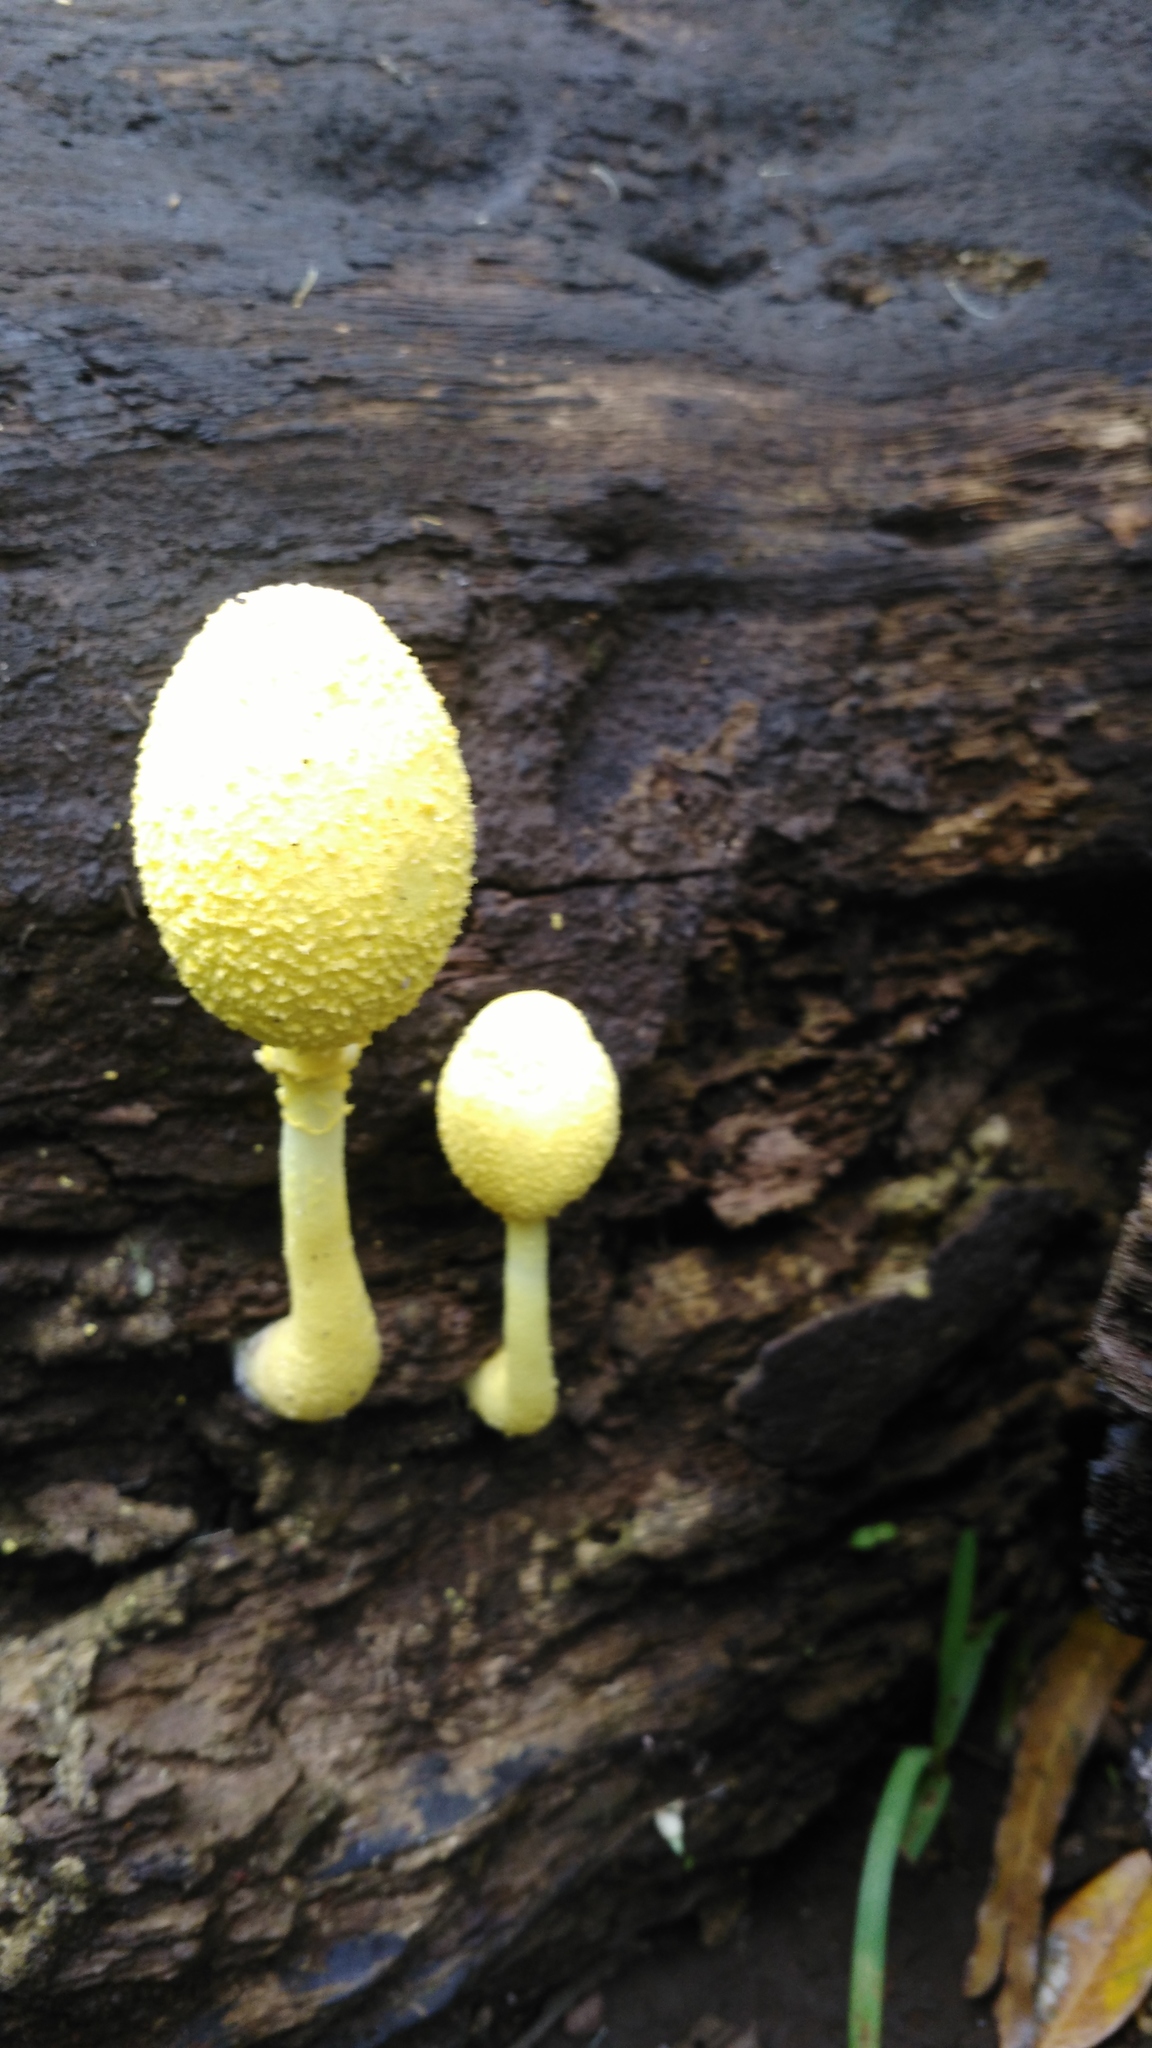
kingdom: Fungi
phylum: Basidiomycota
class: Agaricomycetes
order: Agaricales
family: Agaricaceae
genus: Leucocoprinus
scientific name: Leucocoprinus birnbaumii
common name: Plantpot dapperling
